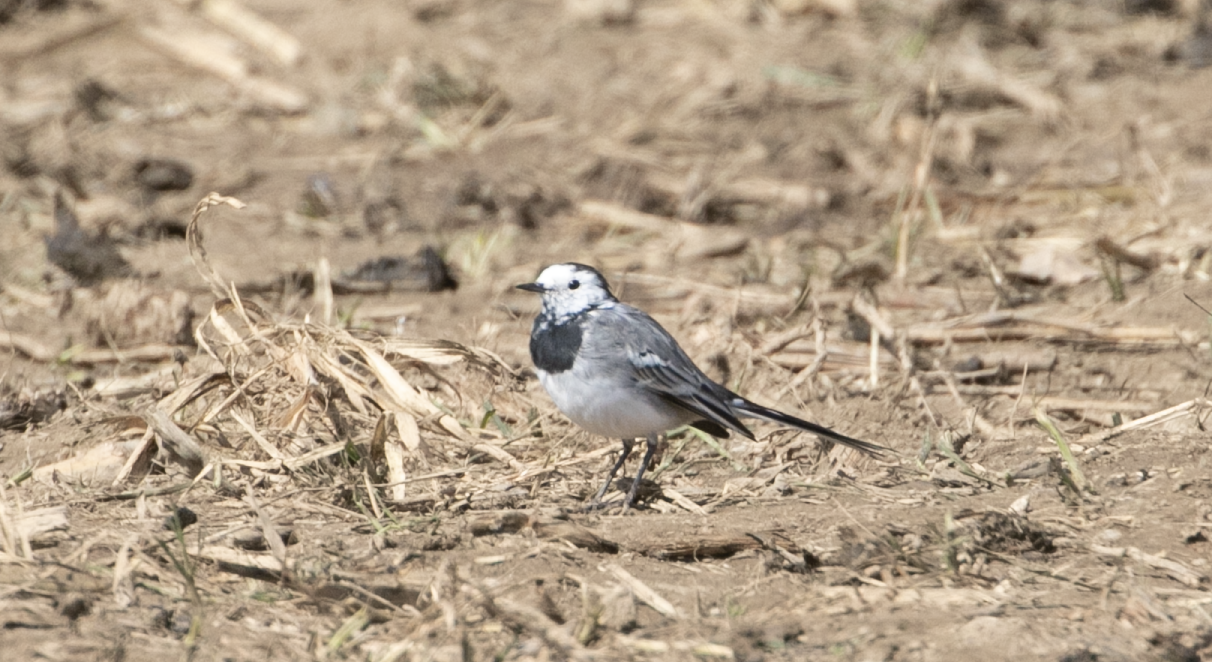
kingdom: Animalia
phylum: Chordata
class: Aves
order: Passeriformes
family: Motacillidae
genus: Motacilla
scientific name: Motacilla alba
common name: White wagtail
